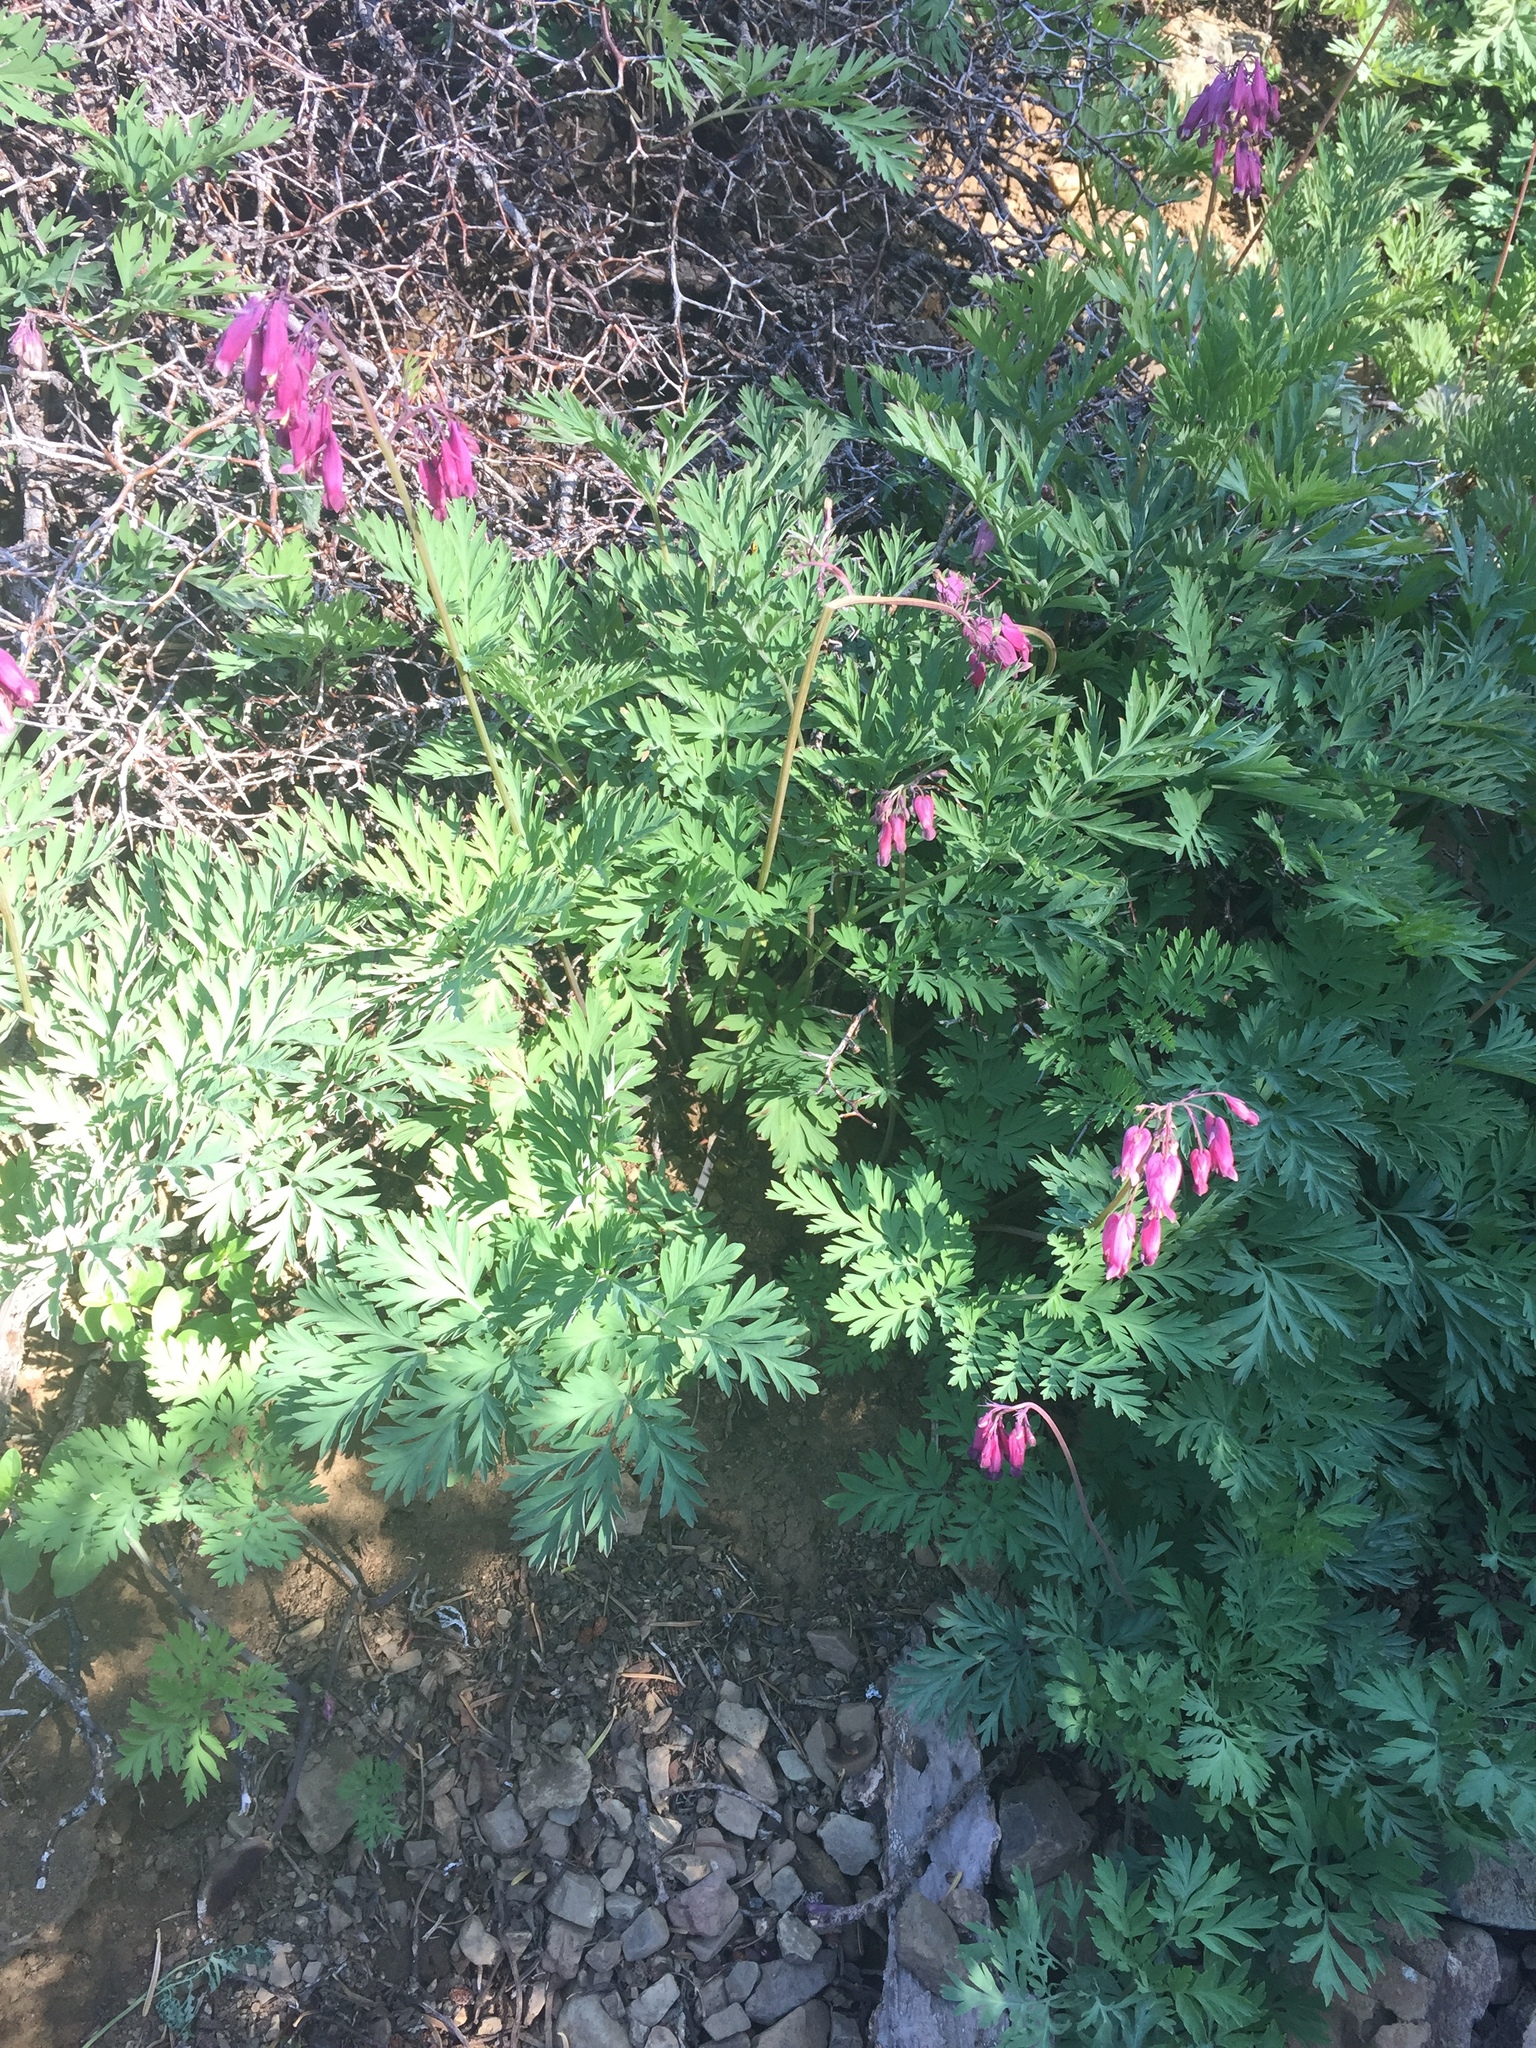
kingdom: Plantae
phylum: Tracheophyta
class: Magnoliopsida
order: Ranunculales
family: Papaveraceae
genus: Dicentra
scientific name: Dicentra formosa
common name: Bleeding-heart
